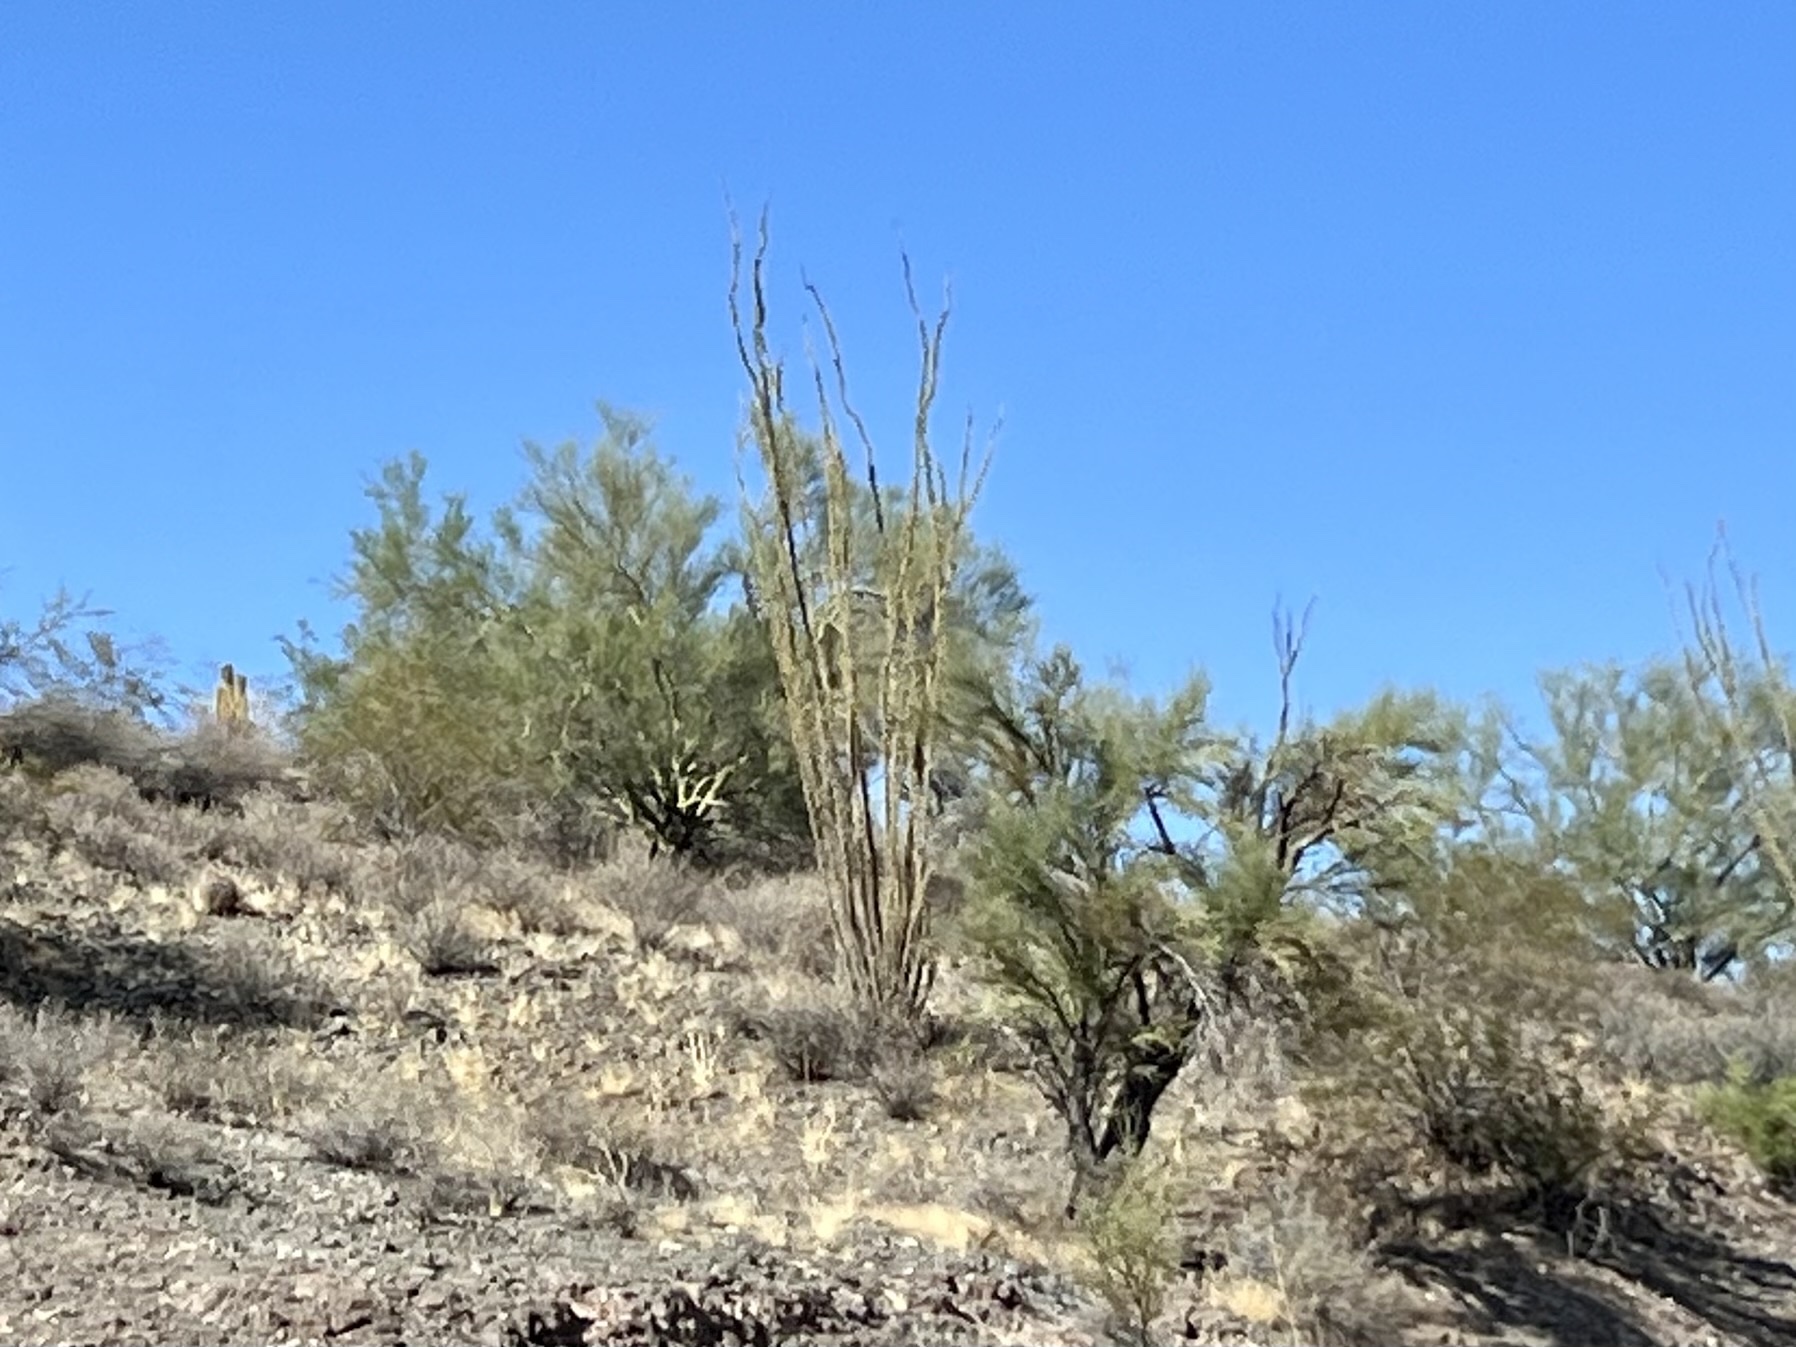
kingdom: Plantae
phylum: Tracheophyta
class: Magnoliopsida
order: Ericales
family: Fouquieriaceae
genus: Fouquieria
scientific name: Fouquieria splendens
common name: Vine-cactus
